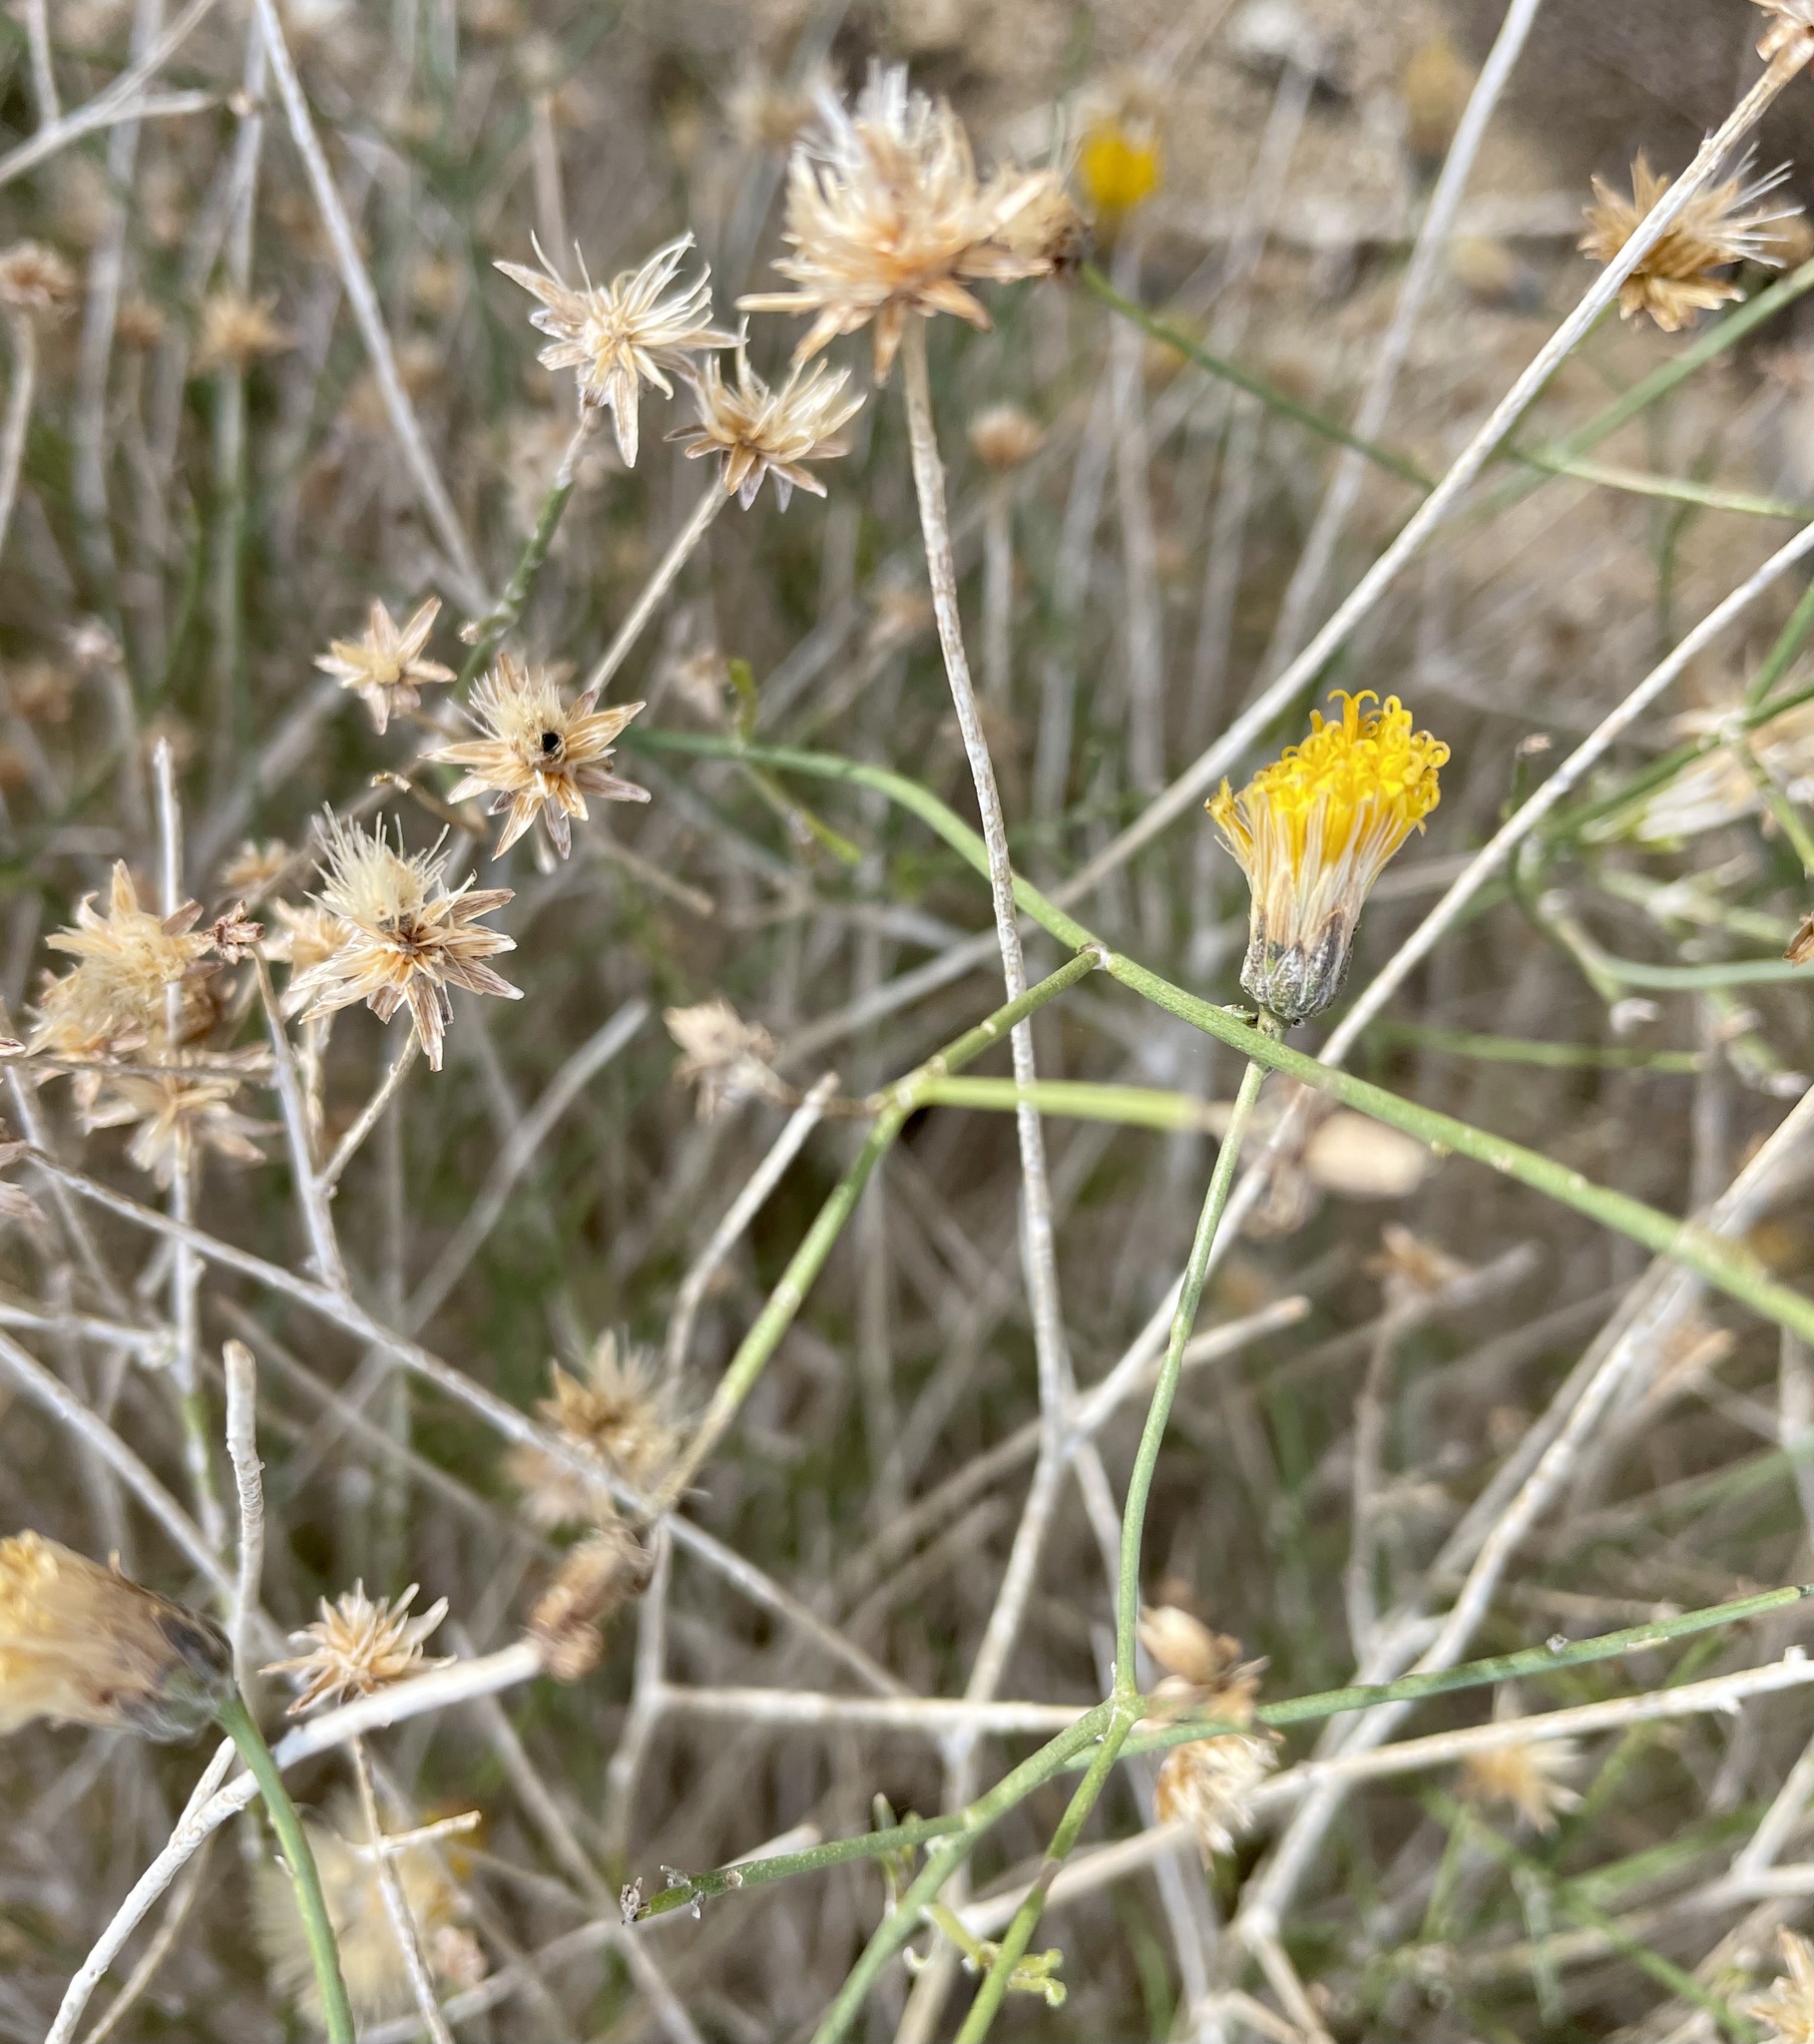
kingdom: Plantae
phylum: Tracheophyta
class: Magnoliopsida
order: Asterales
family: Asteraceae
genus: Bebbia
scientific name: Bebbia juncea
